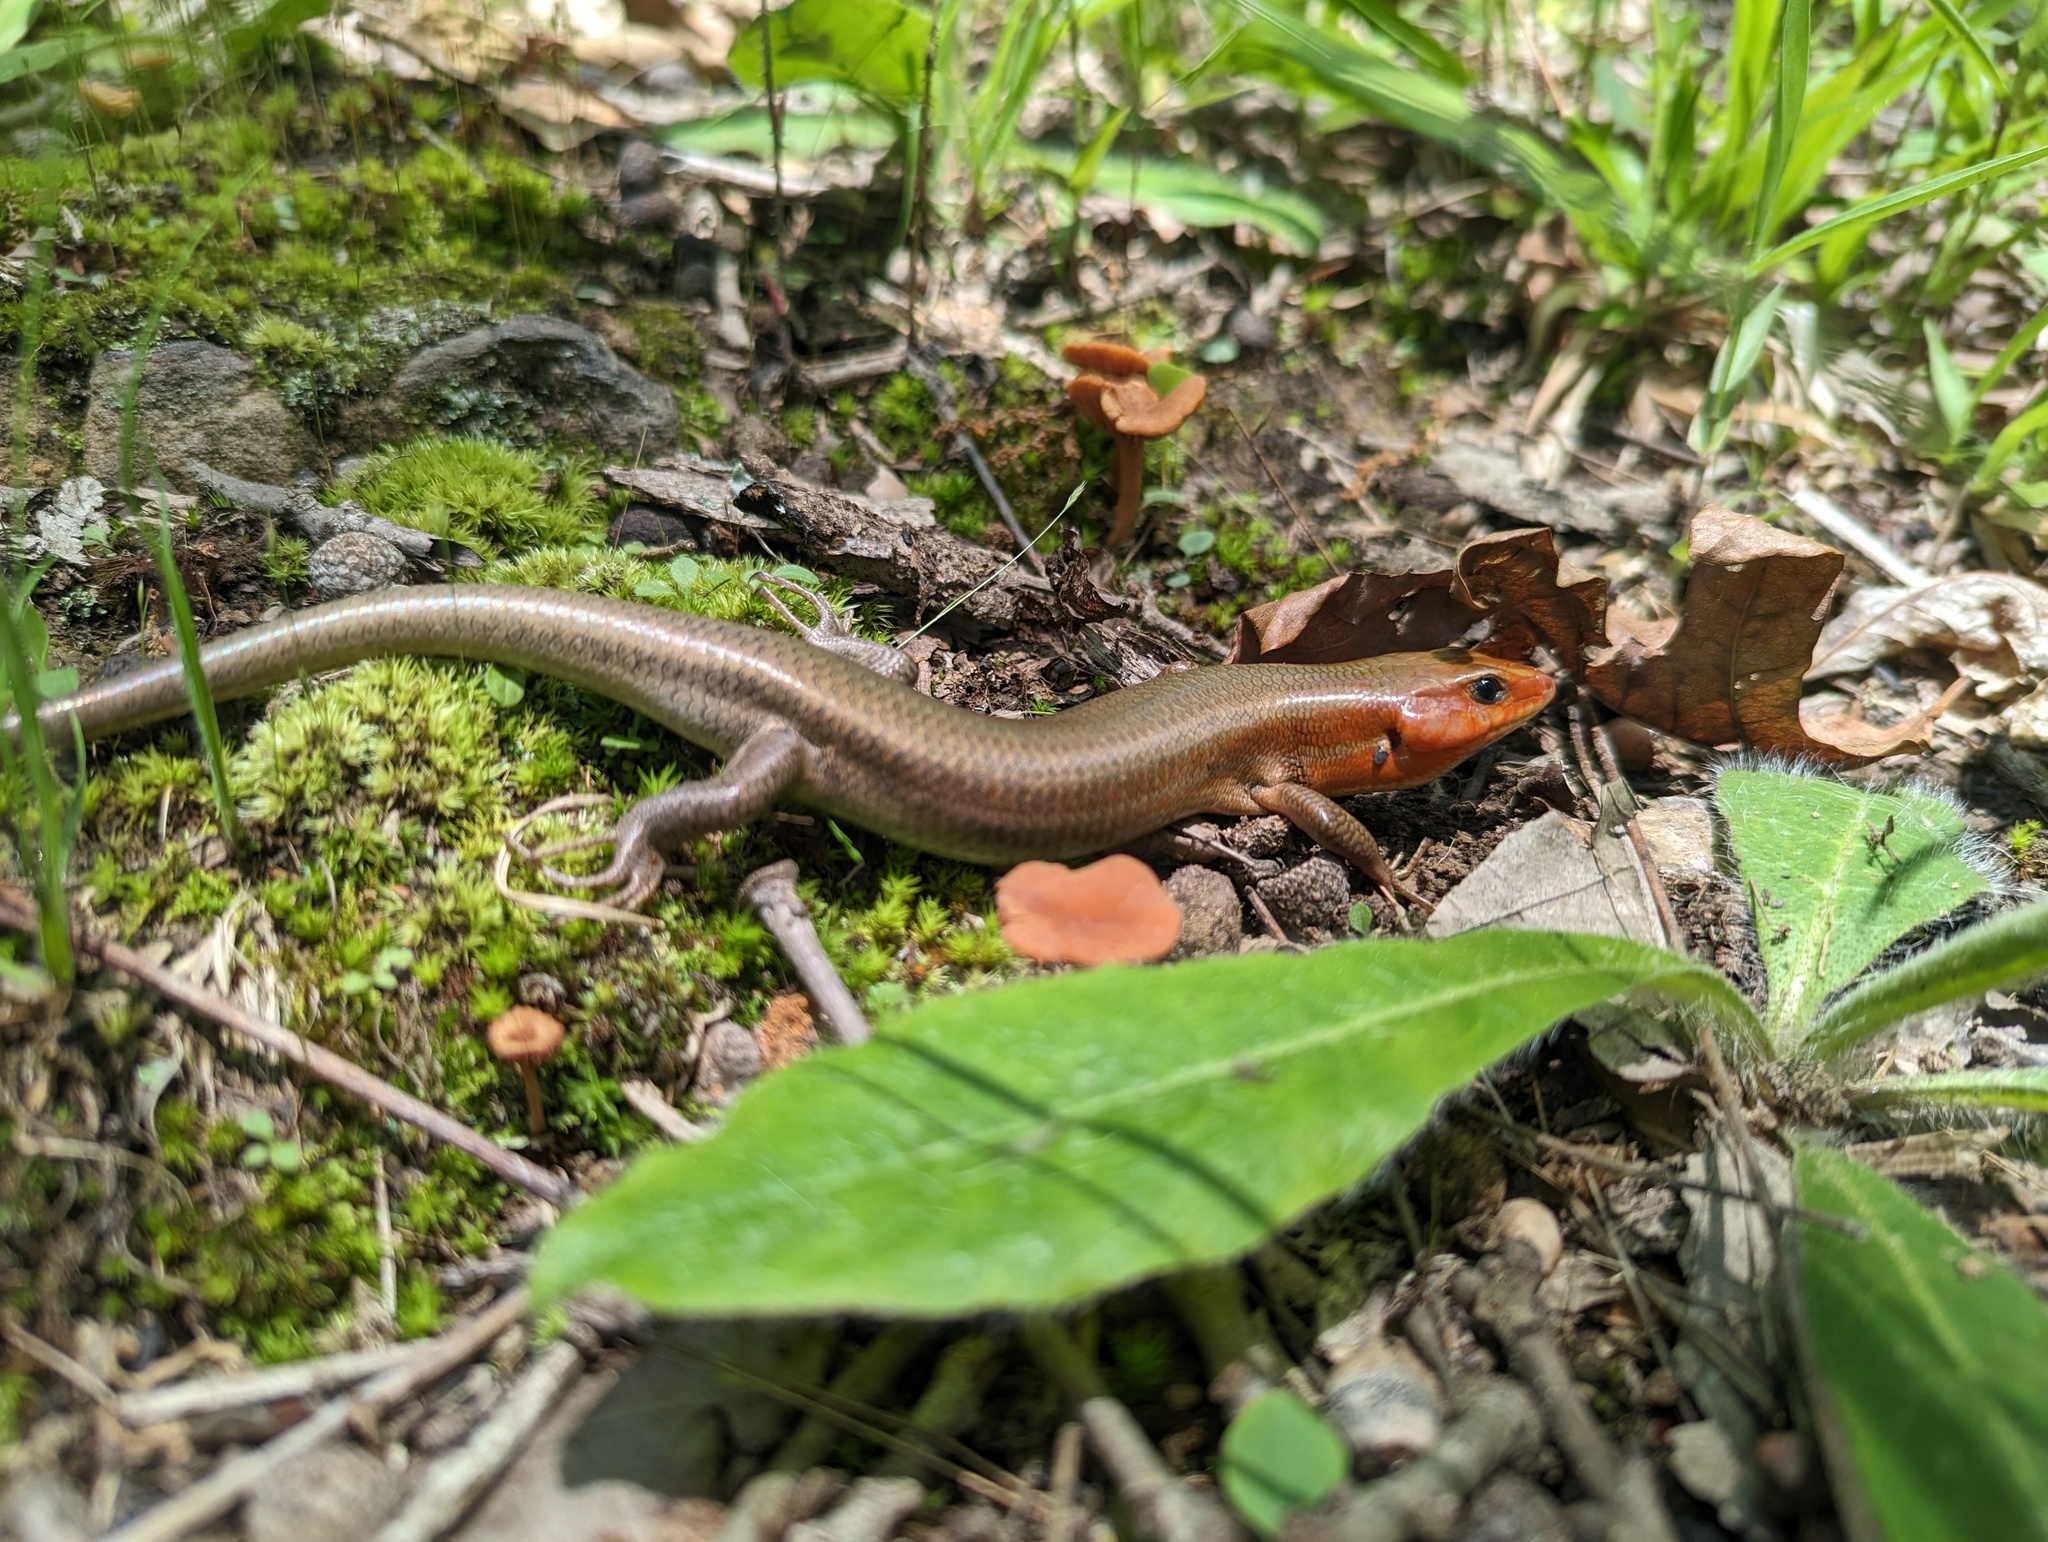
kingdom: Animalia
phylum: Chordata
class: Squamata
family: Scincidae
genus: Plestiodon
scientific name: Plestiodon laticeps
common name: Broadhead skink
